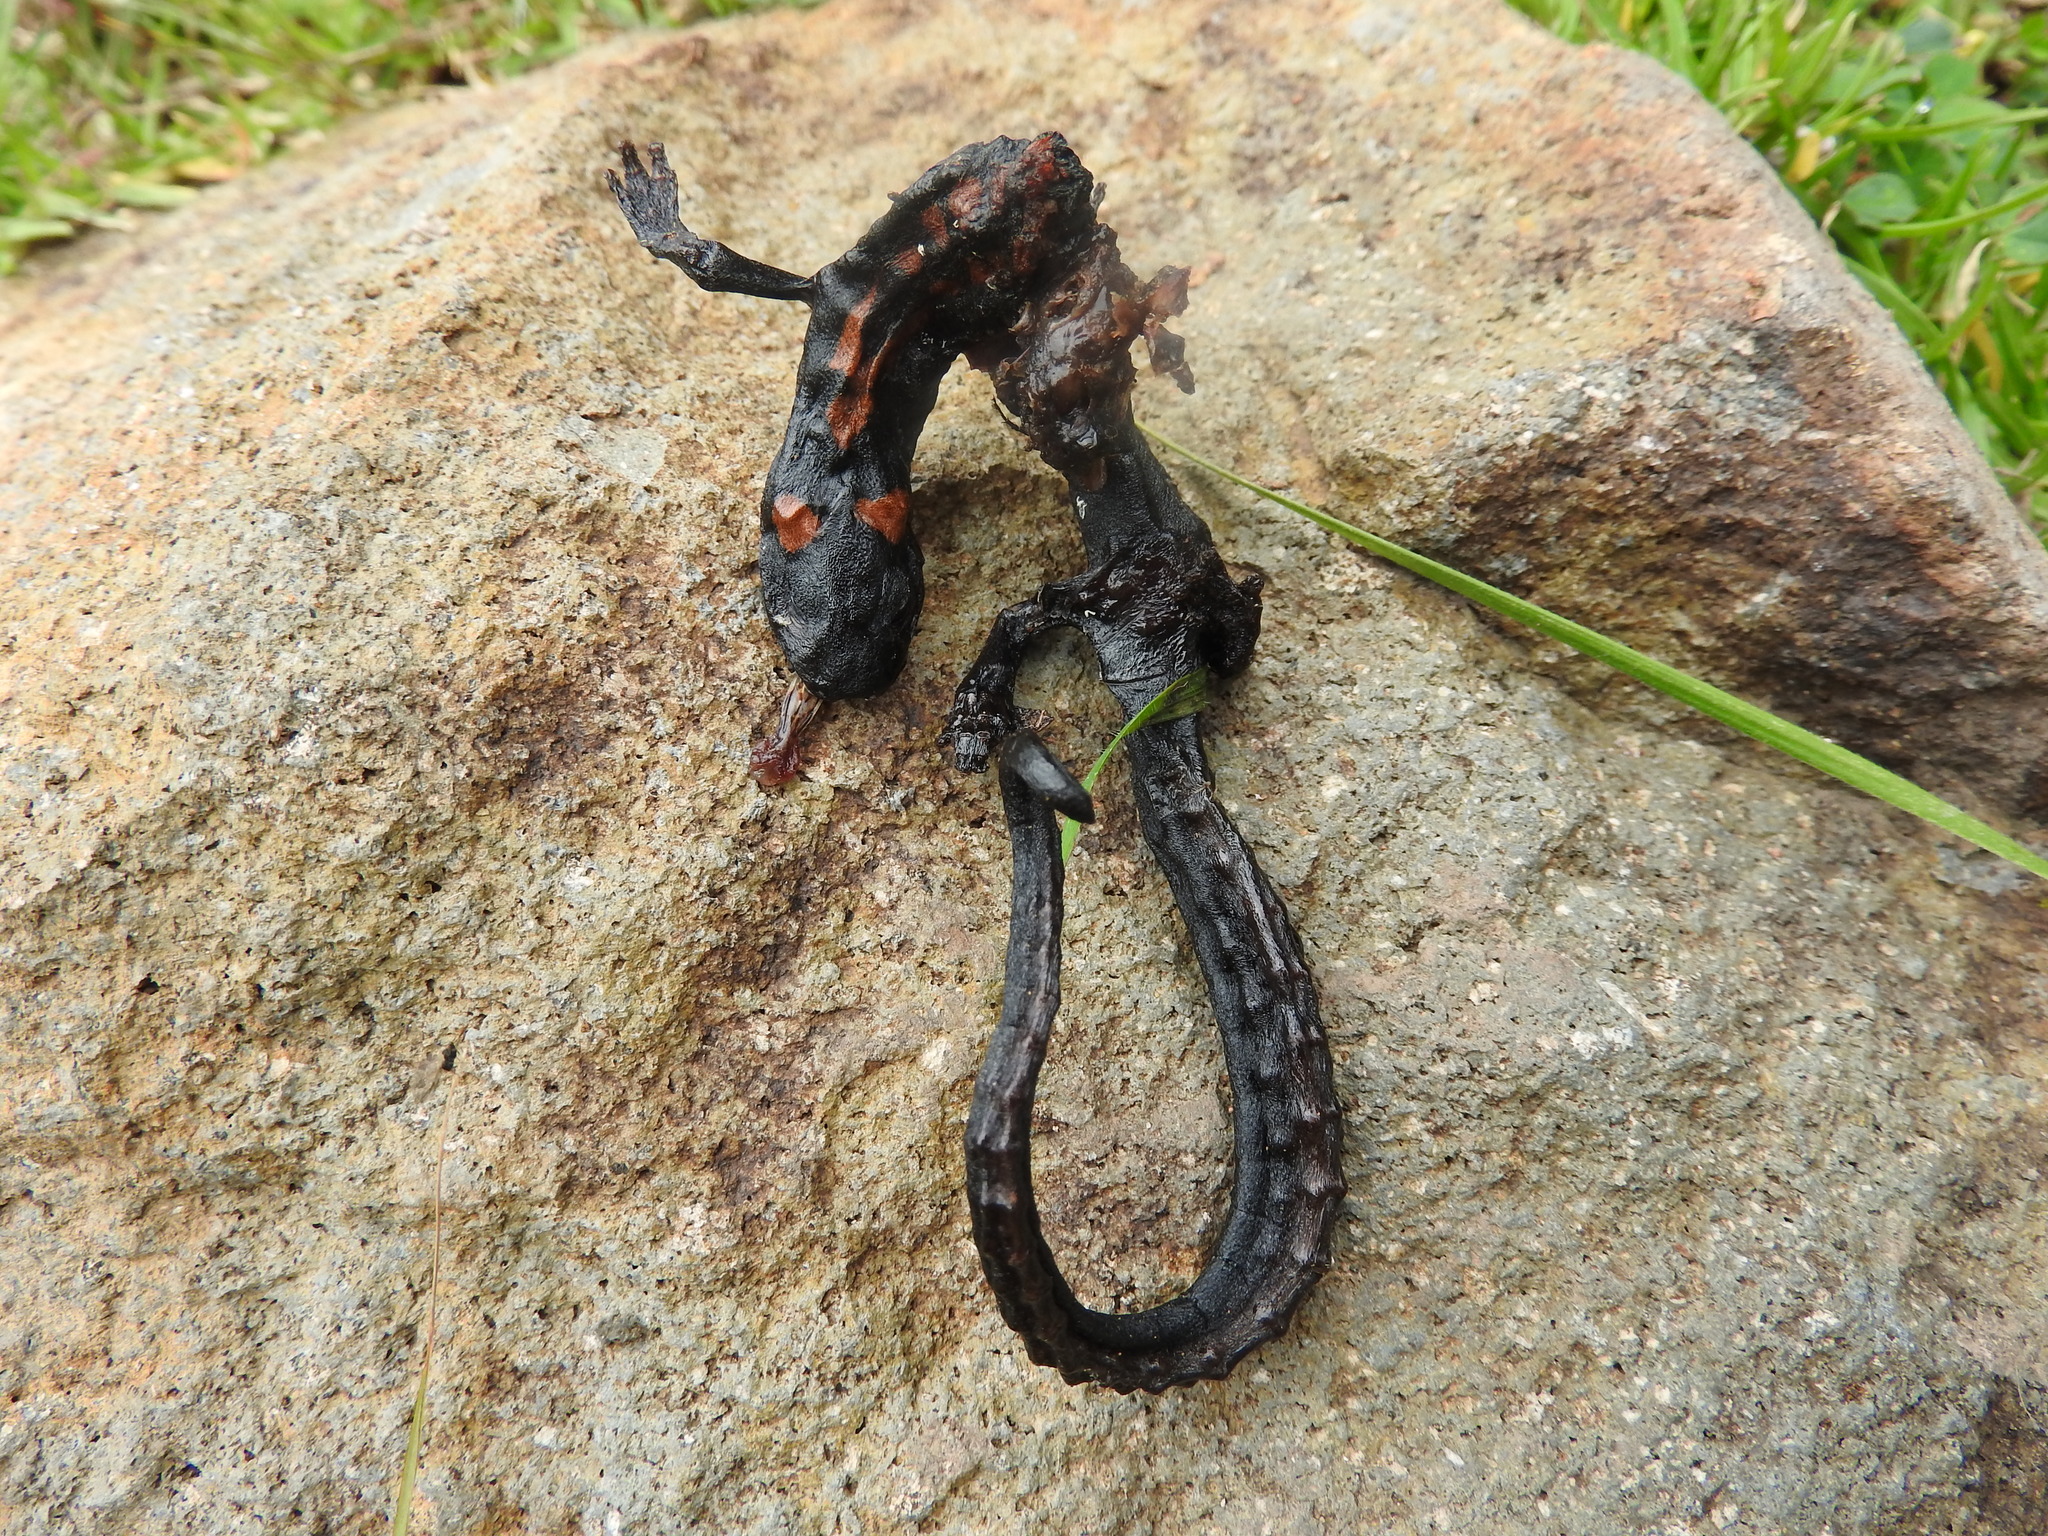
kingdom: Animalia
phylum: Chordata
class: Amphibia
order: Caudata
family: Plethodontidae
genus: Isthmura
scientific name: Isthmura bellii
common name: Bell's false brook salamander
